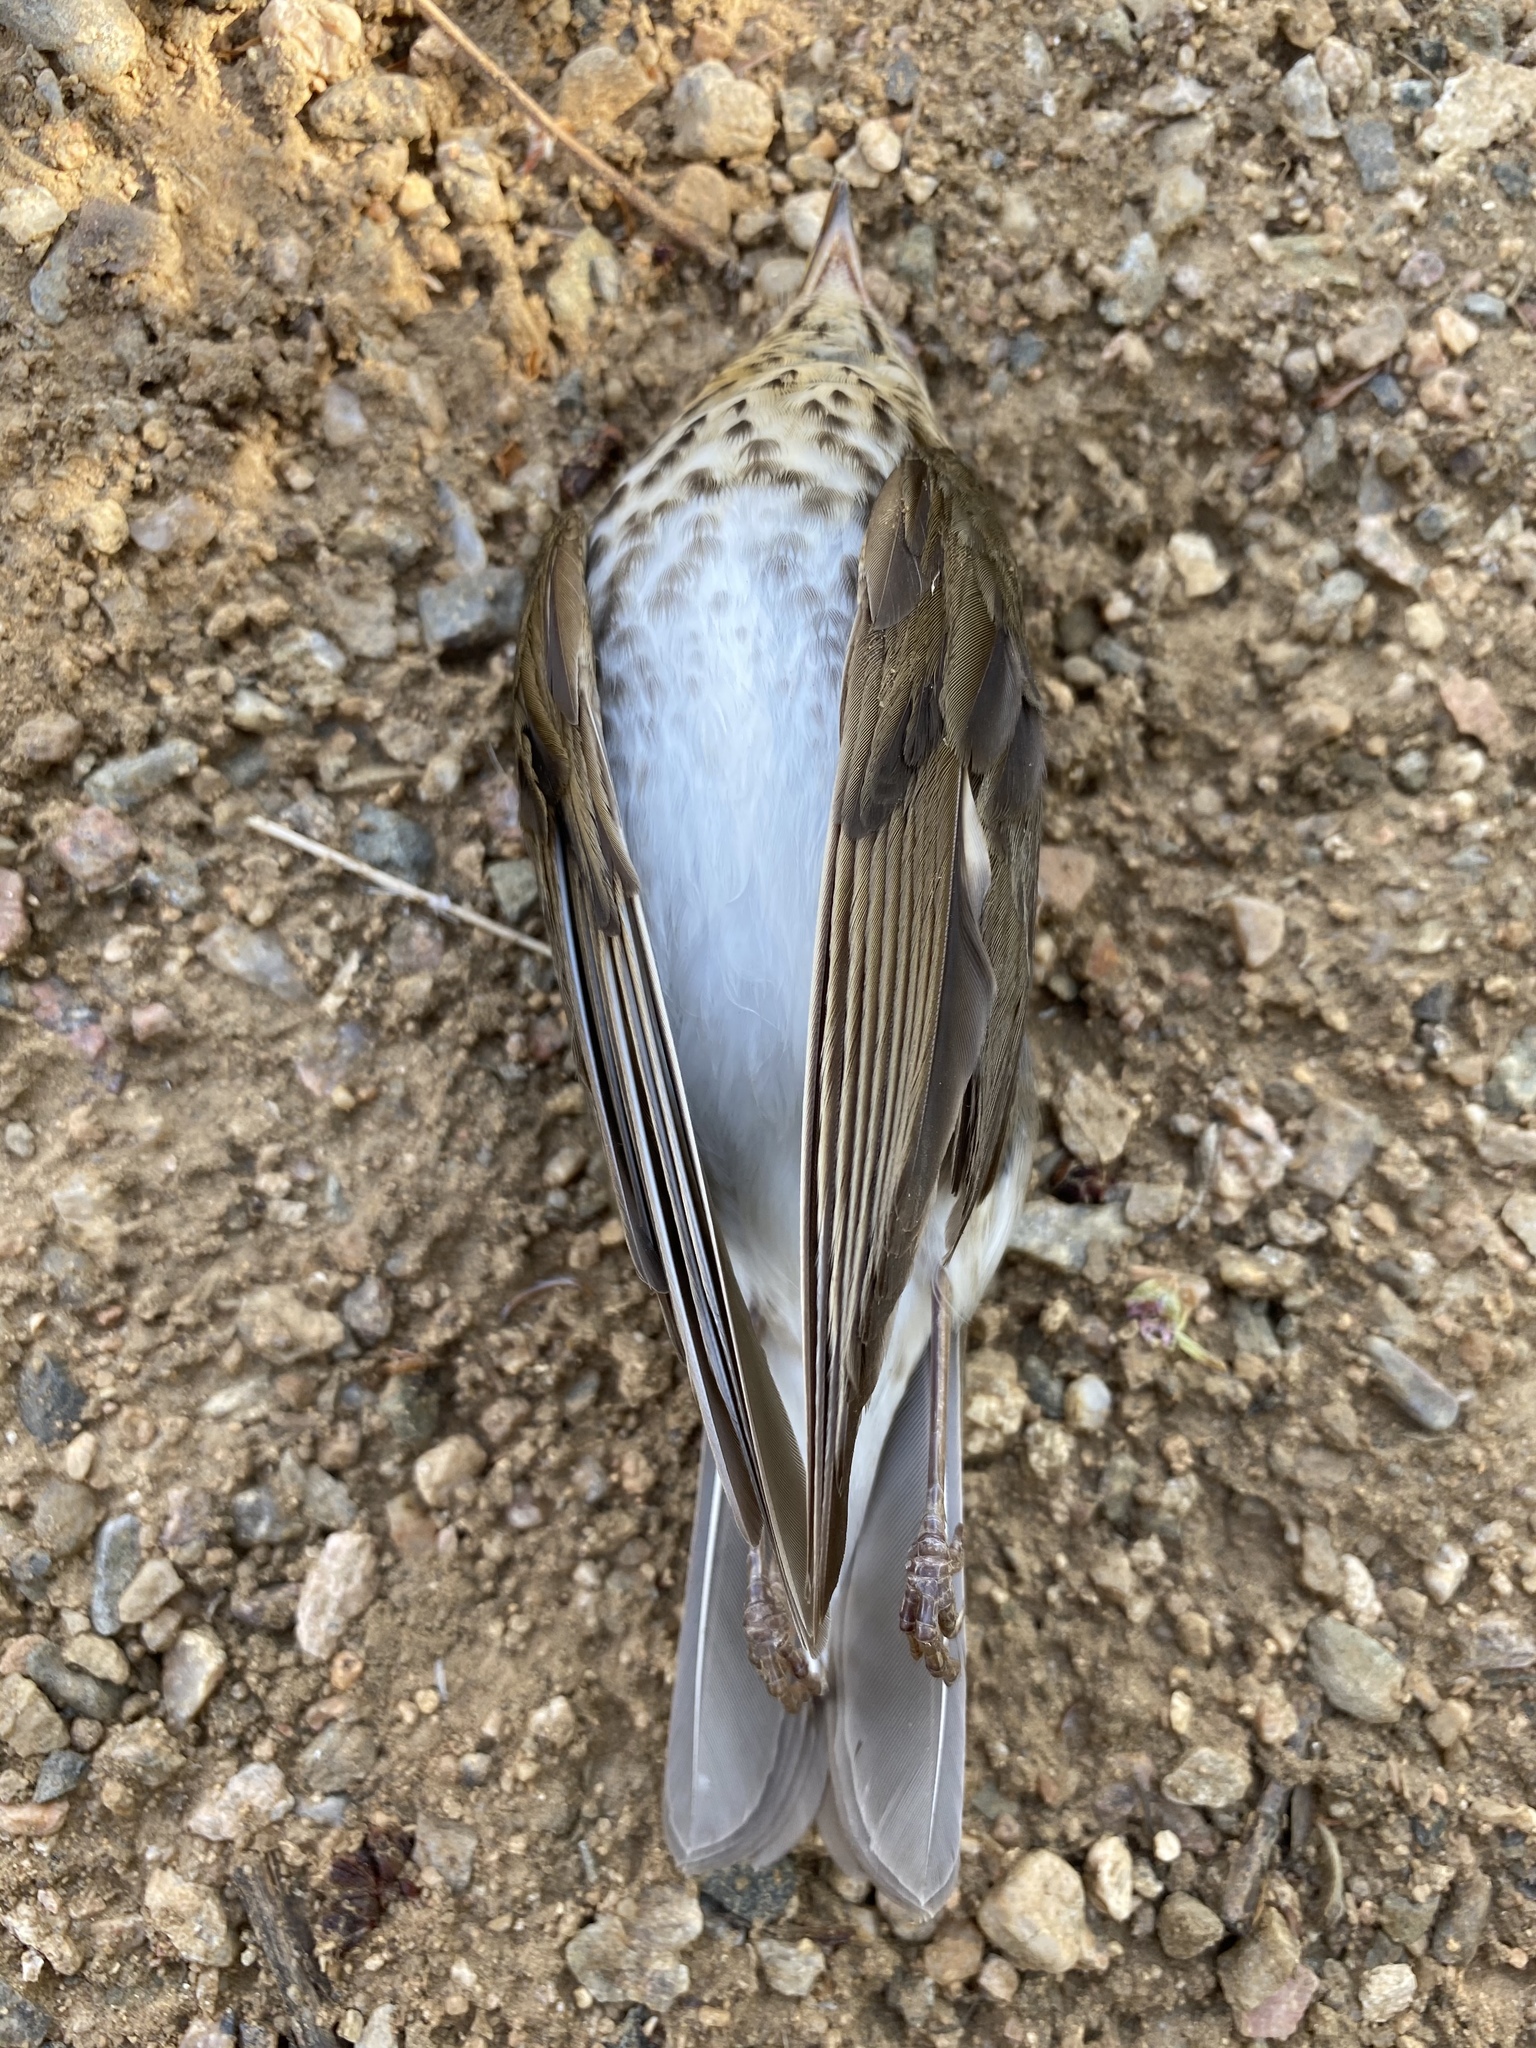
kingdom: Animalia
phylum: Chordata
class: Aves
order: Passeriformes
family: Turdidae
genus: Catharus
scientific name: Catharus ustulatus
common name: Swainson's thrush
